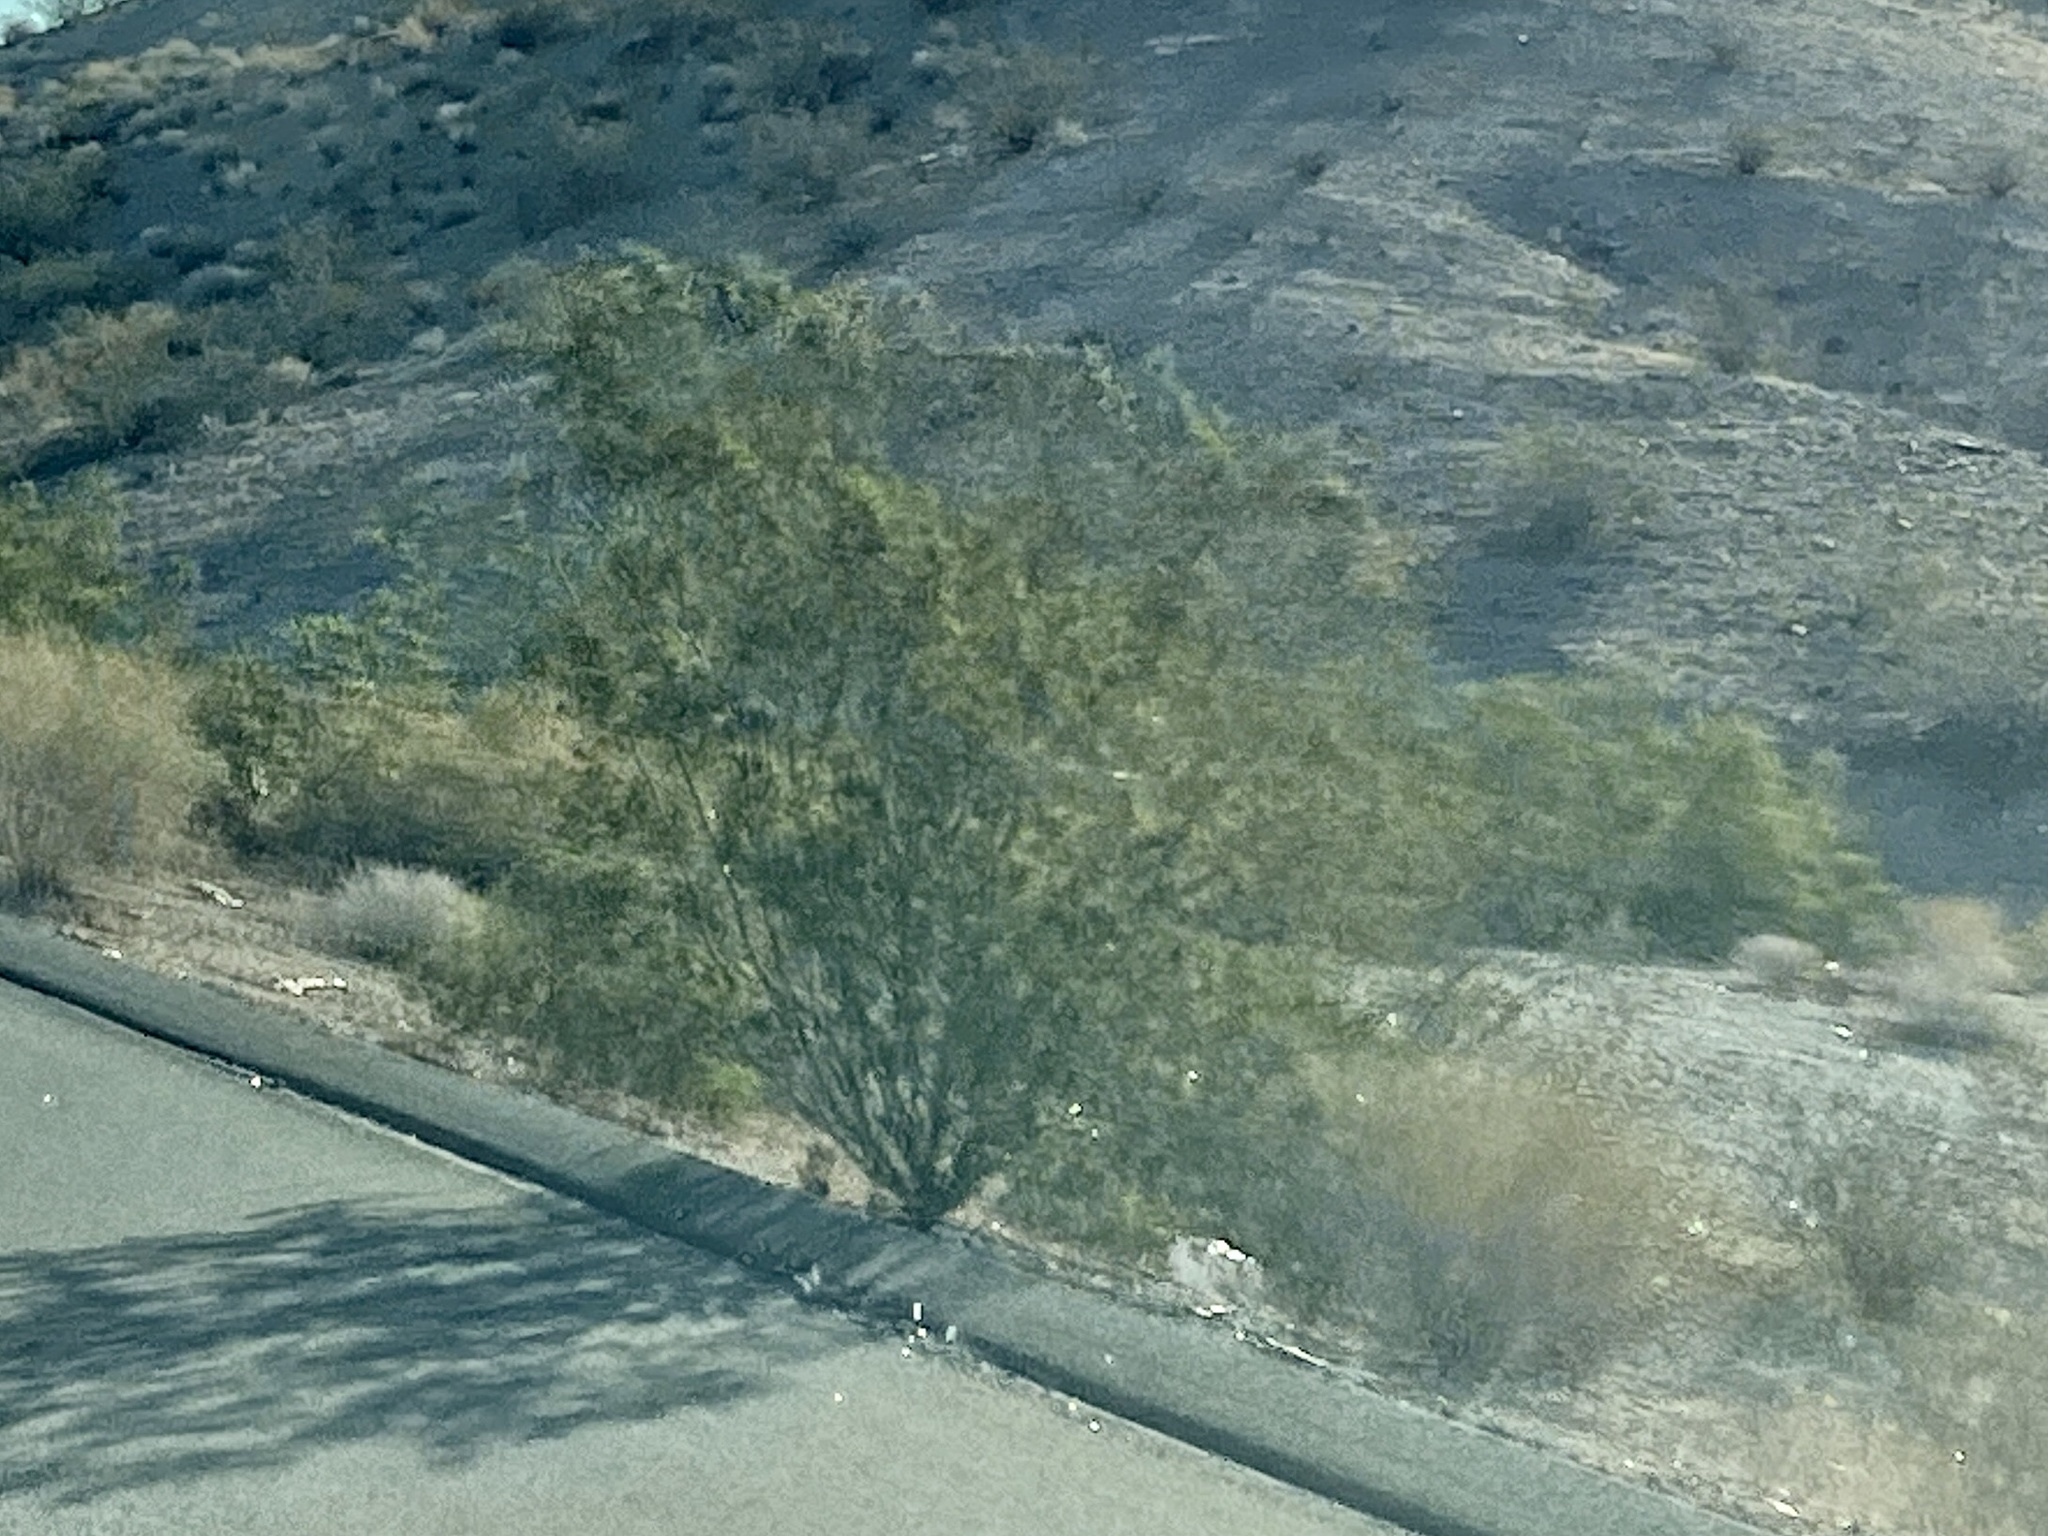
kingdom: Plantae
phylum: Tracheophyta
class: Magnoliopsida
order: Zygophyllales
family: Zygophyllaceae
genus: Larrea
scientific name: Larrea tridentata
